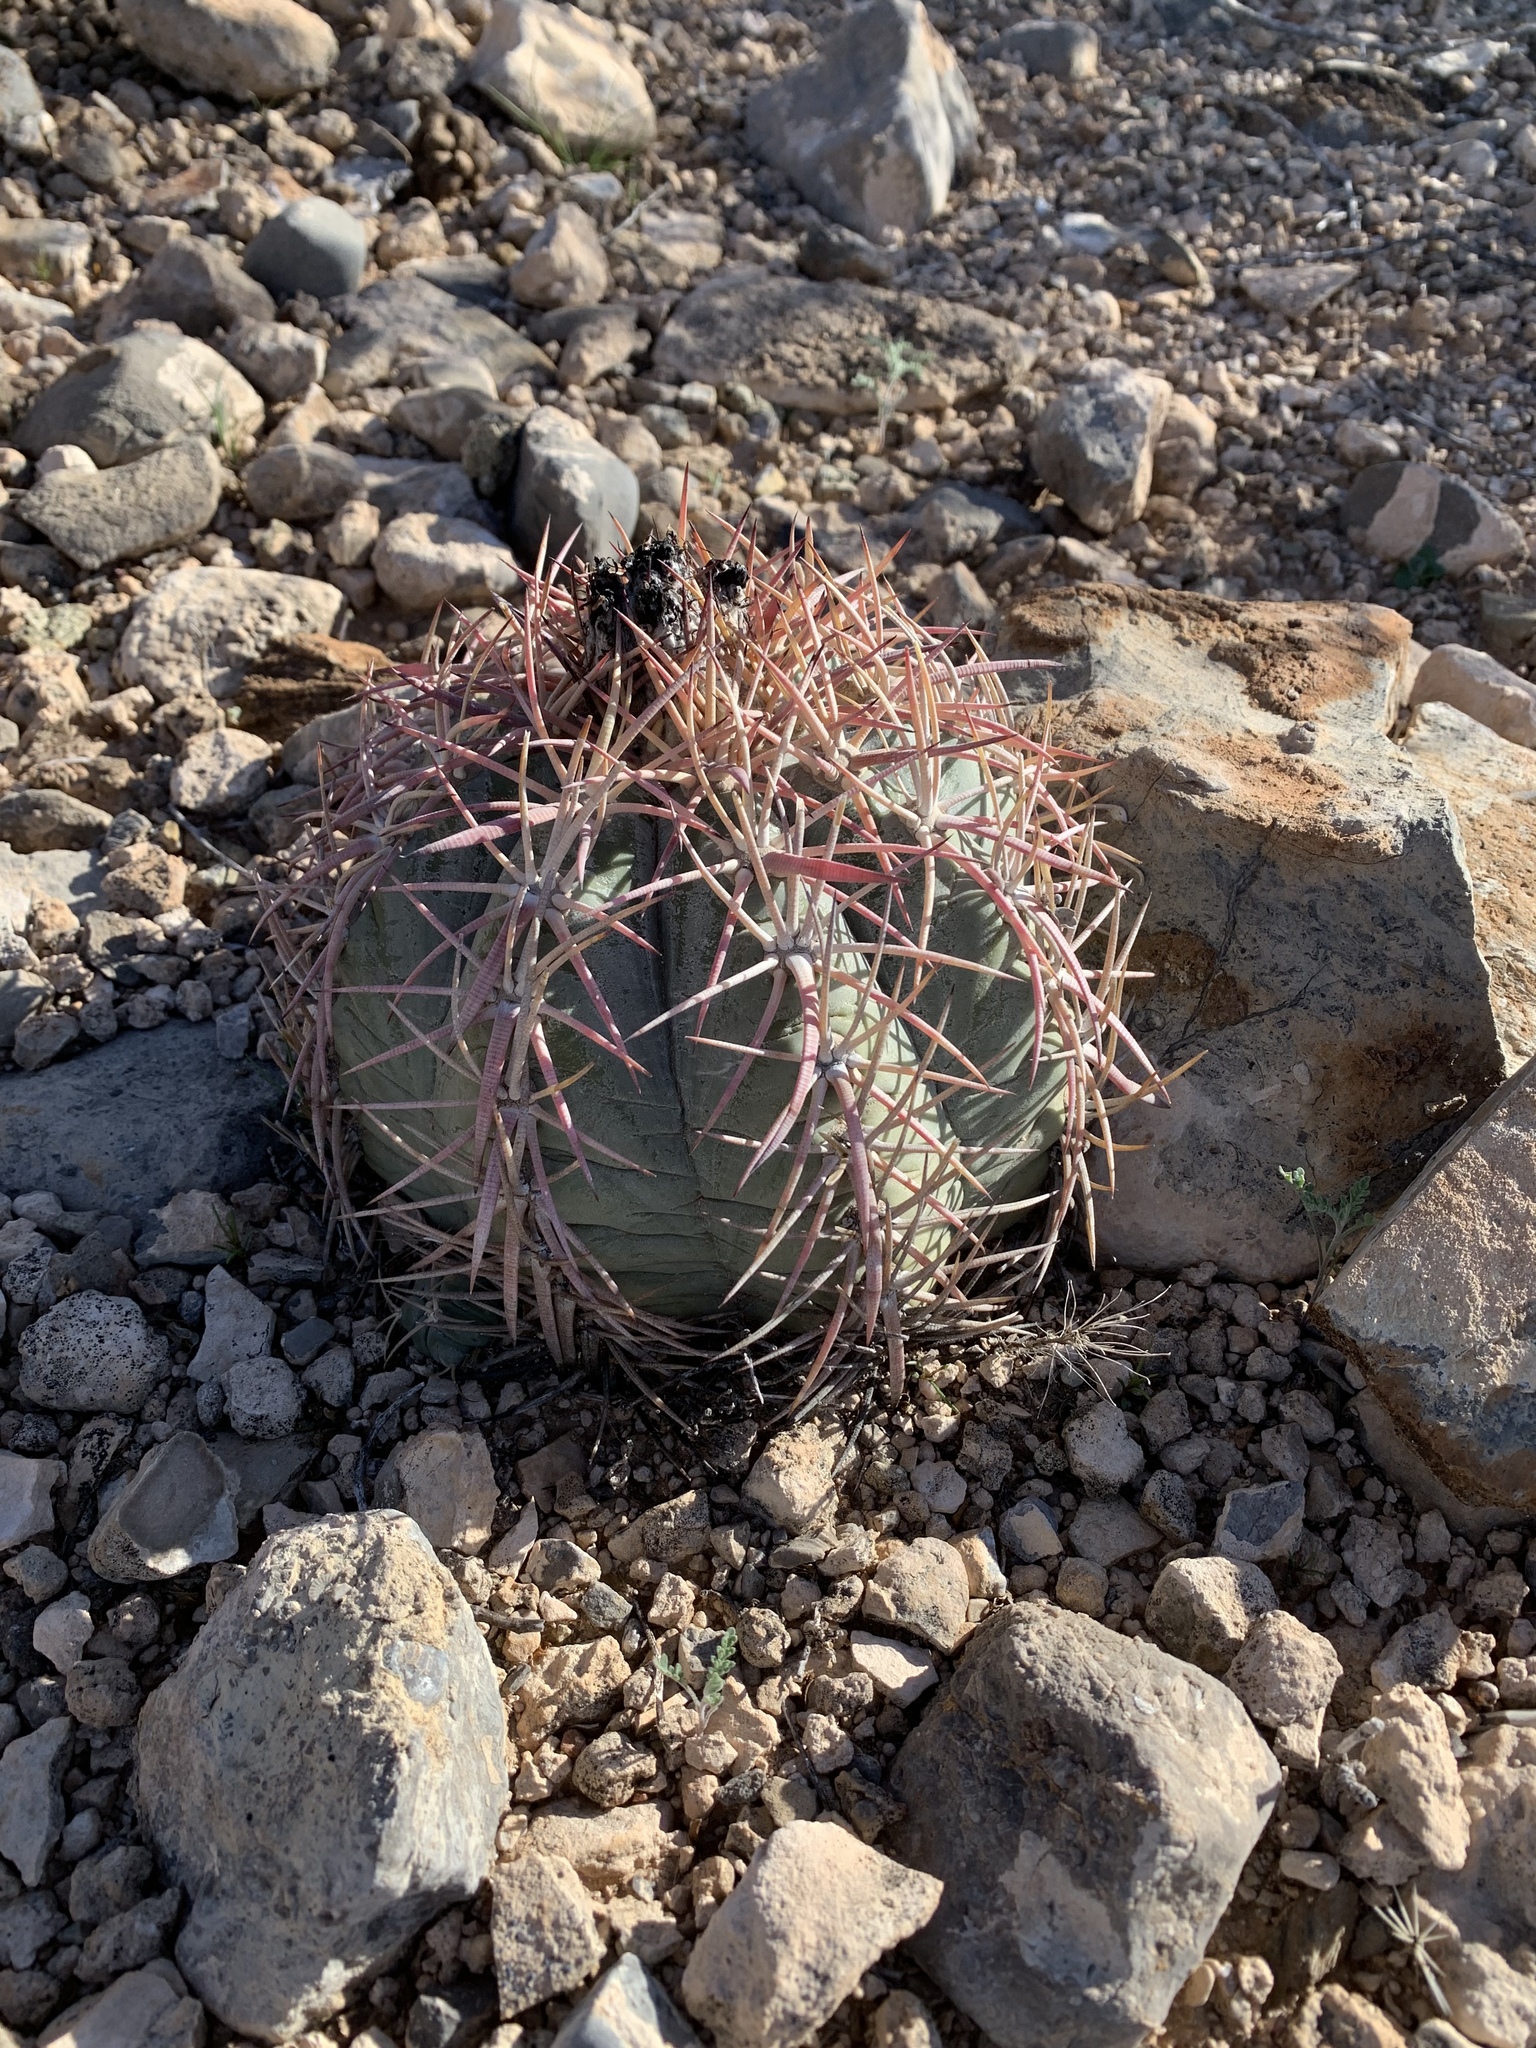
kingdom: Plantae
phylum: Tracheophyta
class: Magnoliopsida
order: Caryophyllales
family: Cactaceae
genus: Echinocactus
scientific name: Echinocactus horizonthalonius
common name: Devilshead
